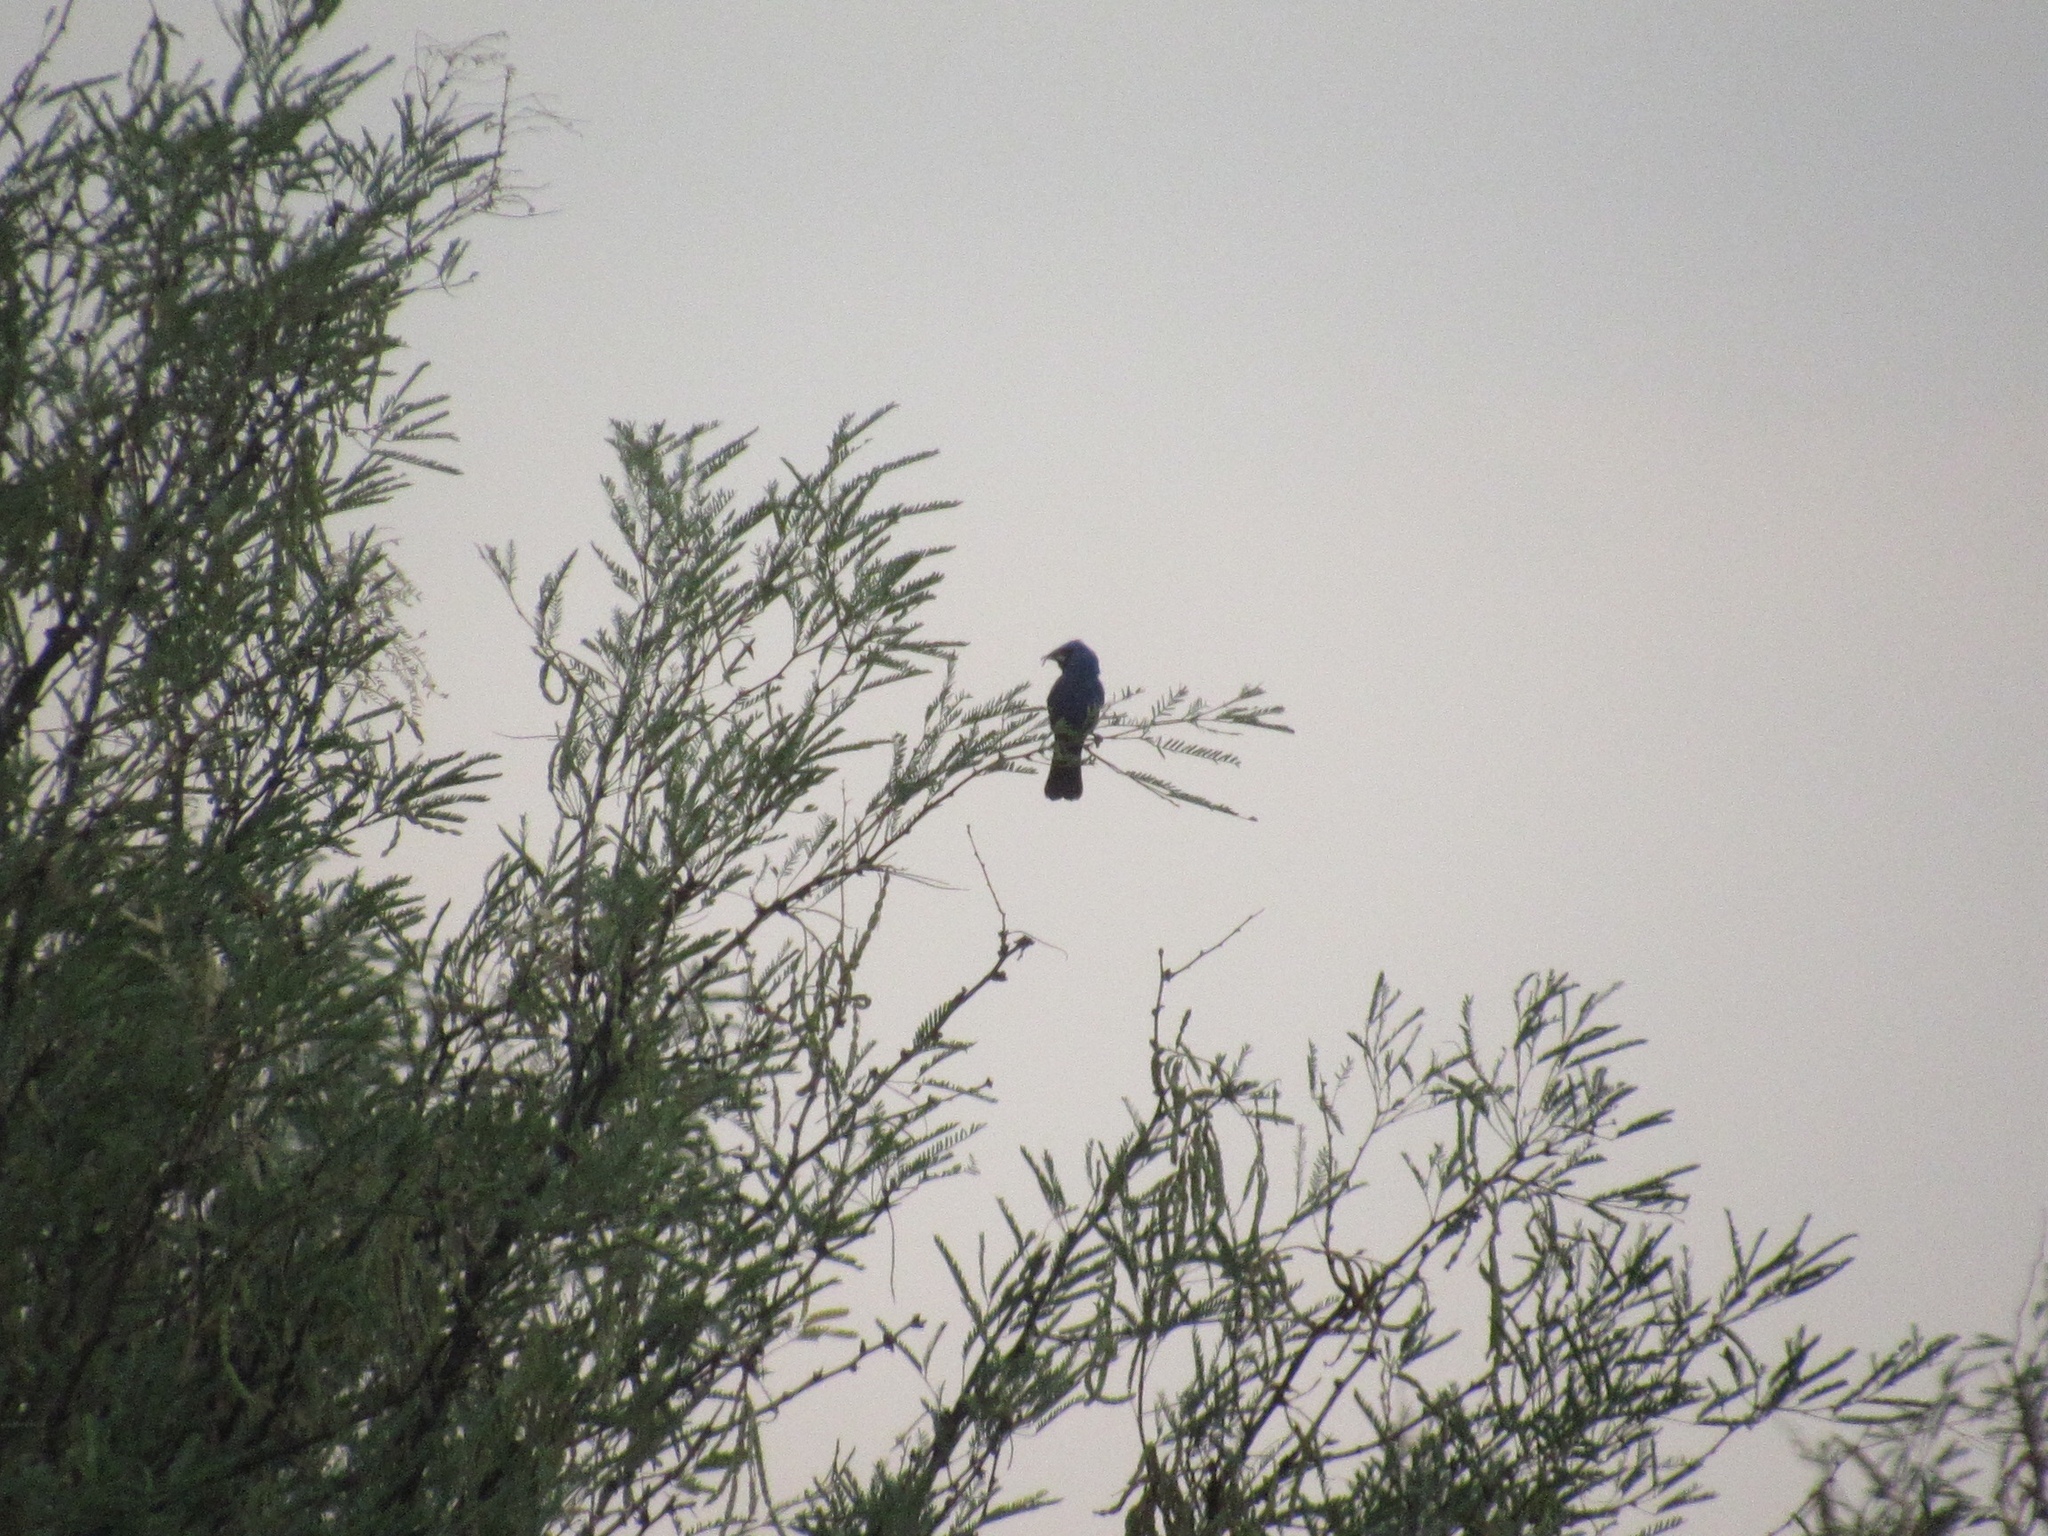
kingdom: Animalia
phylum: Chordata
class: Aves
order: Passeriformes
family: Cardinalidae
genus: Passerina
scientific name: Passerina caerulea
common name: Blue grosbeak
